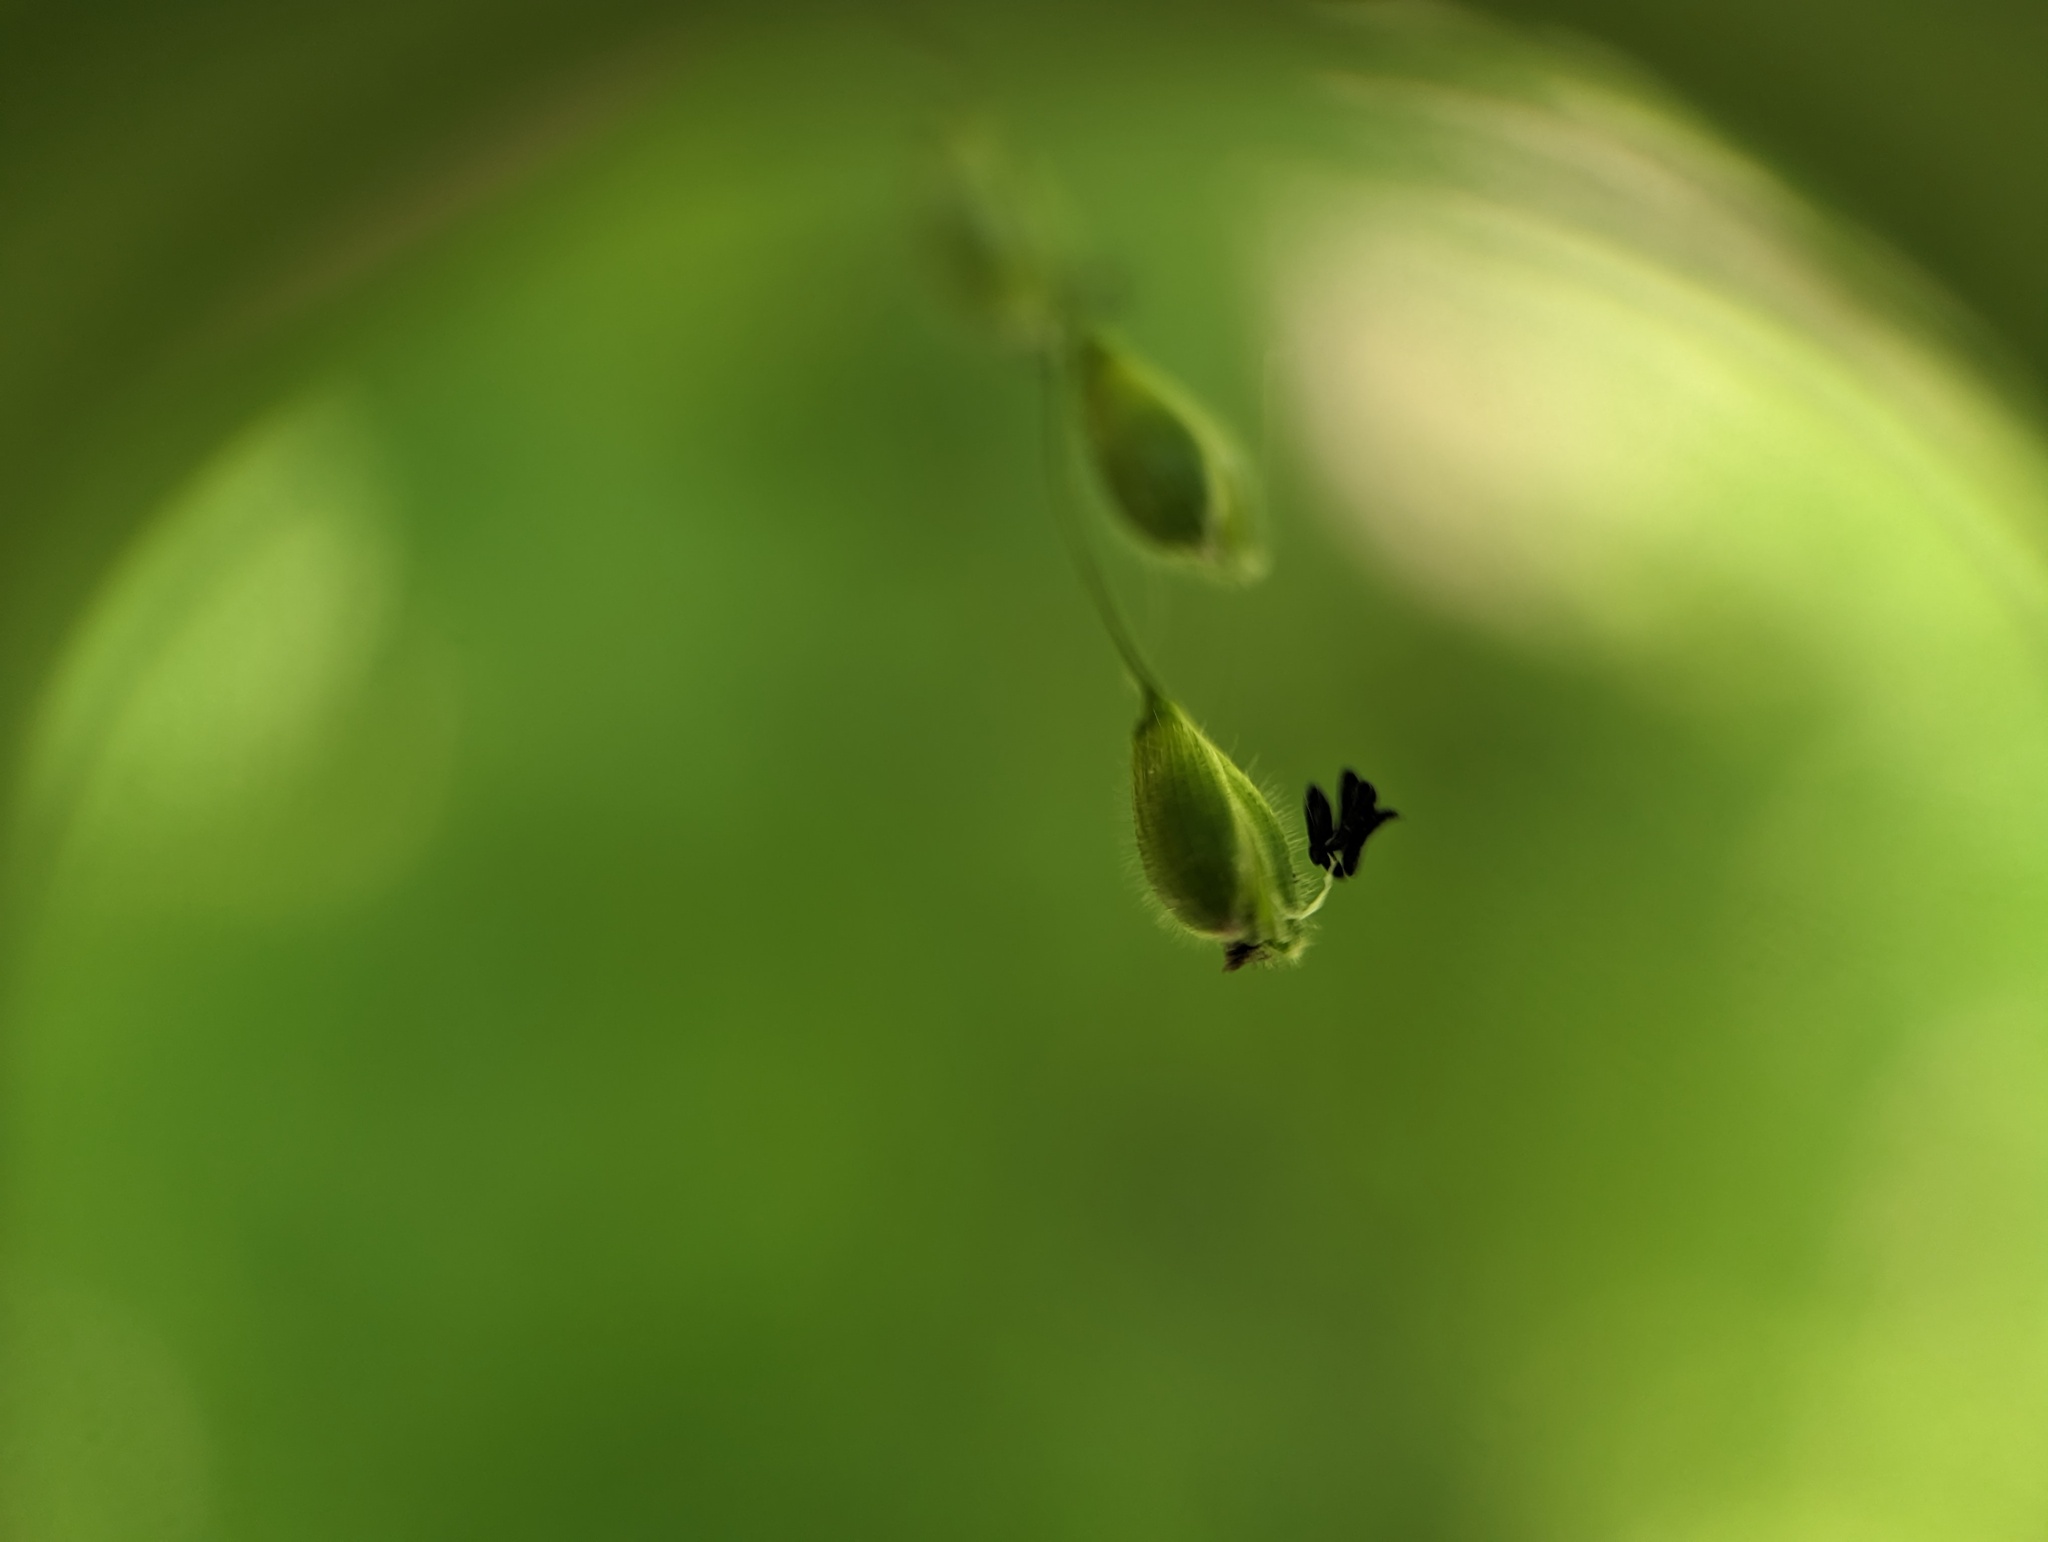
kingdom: Plantae
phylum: Tracheophyta
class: Liliopsida
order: Poales
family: Poaceae
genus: Dichanthelium
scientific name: Dichanthelium boscii
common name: Bosc's panic grass
